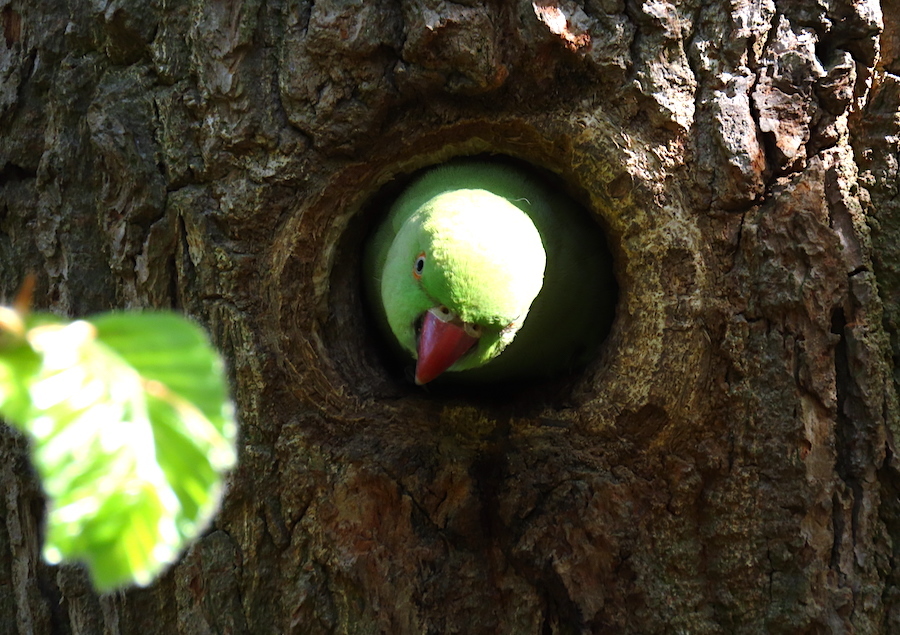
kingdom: Animalia
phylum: Chordata
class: Aves
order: Psittaciformes
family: Psittacidae
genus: Psittacula
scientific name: Psittacula krameri
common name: Rose-ringed parakeet
